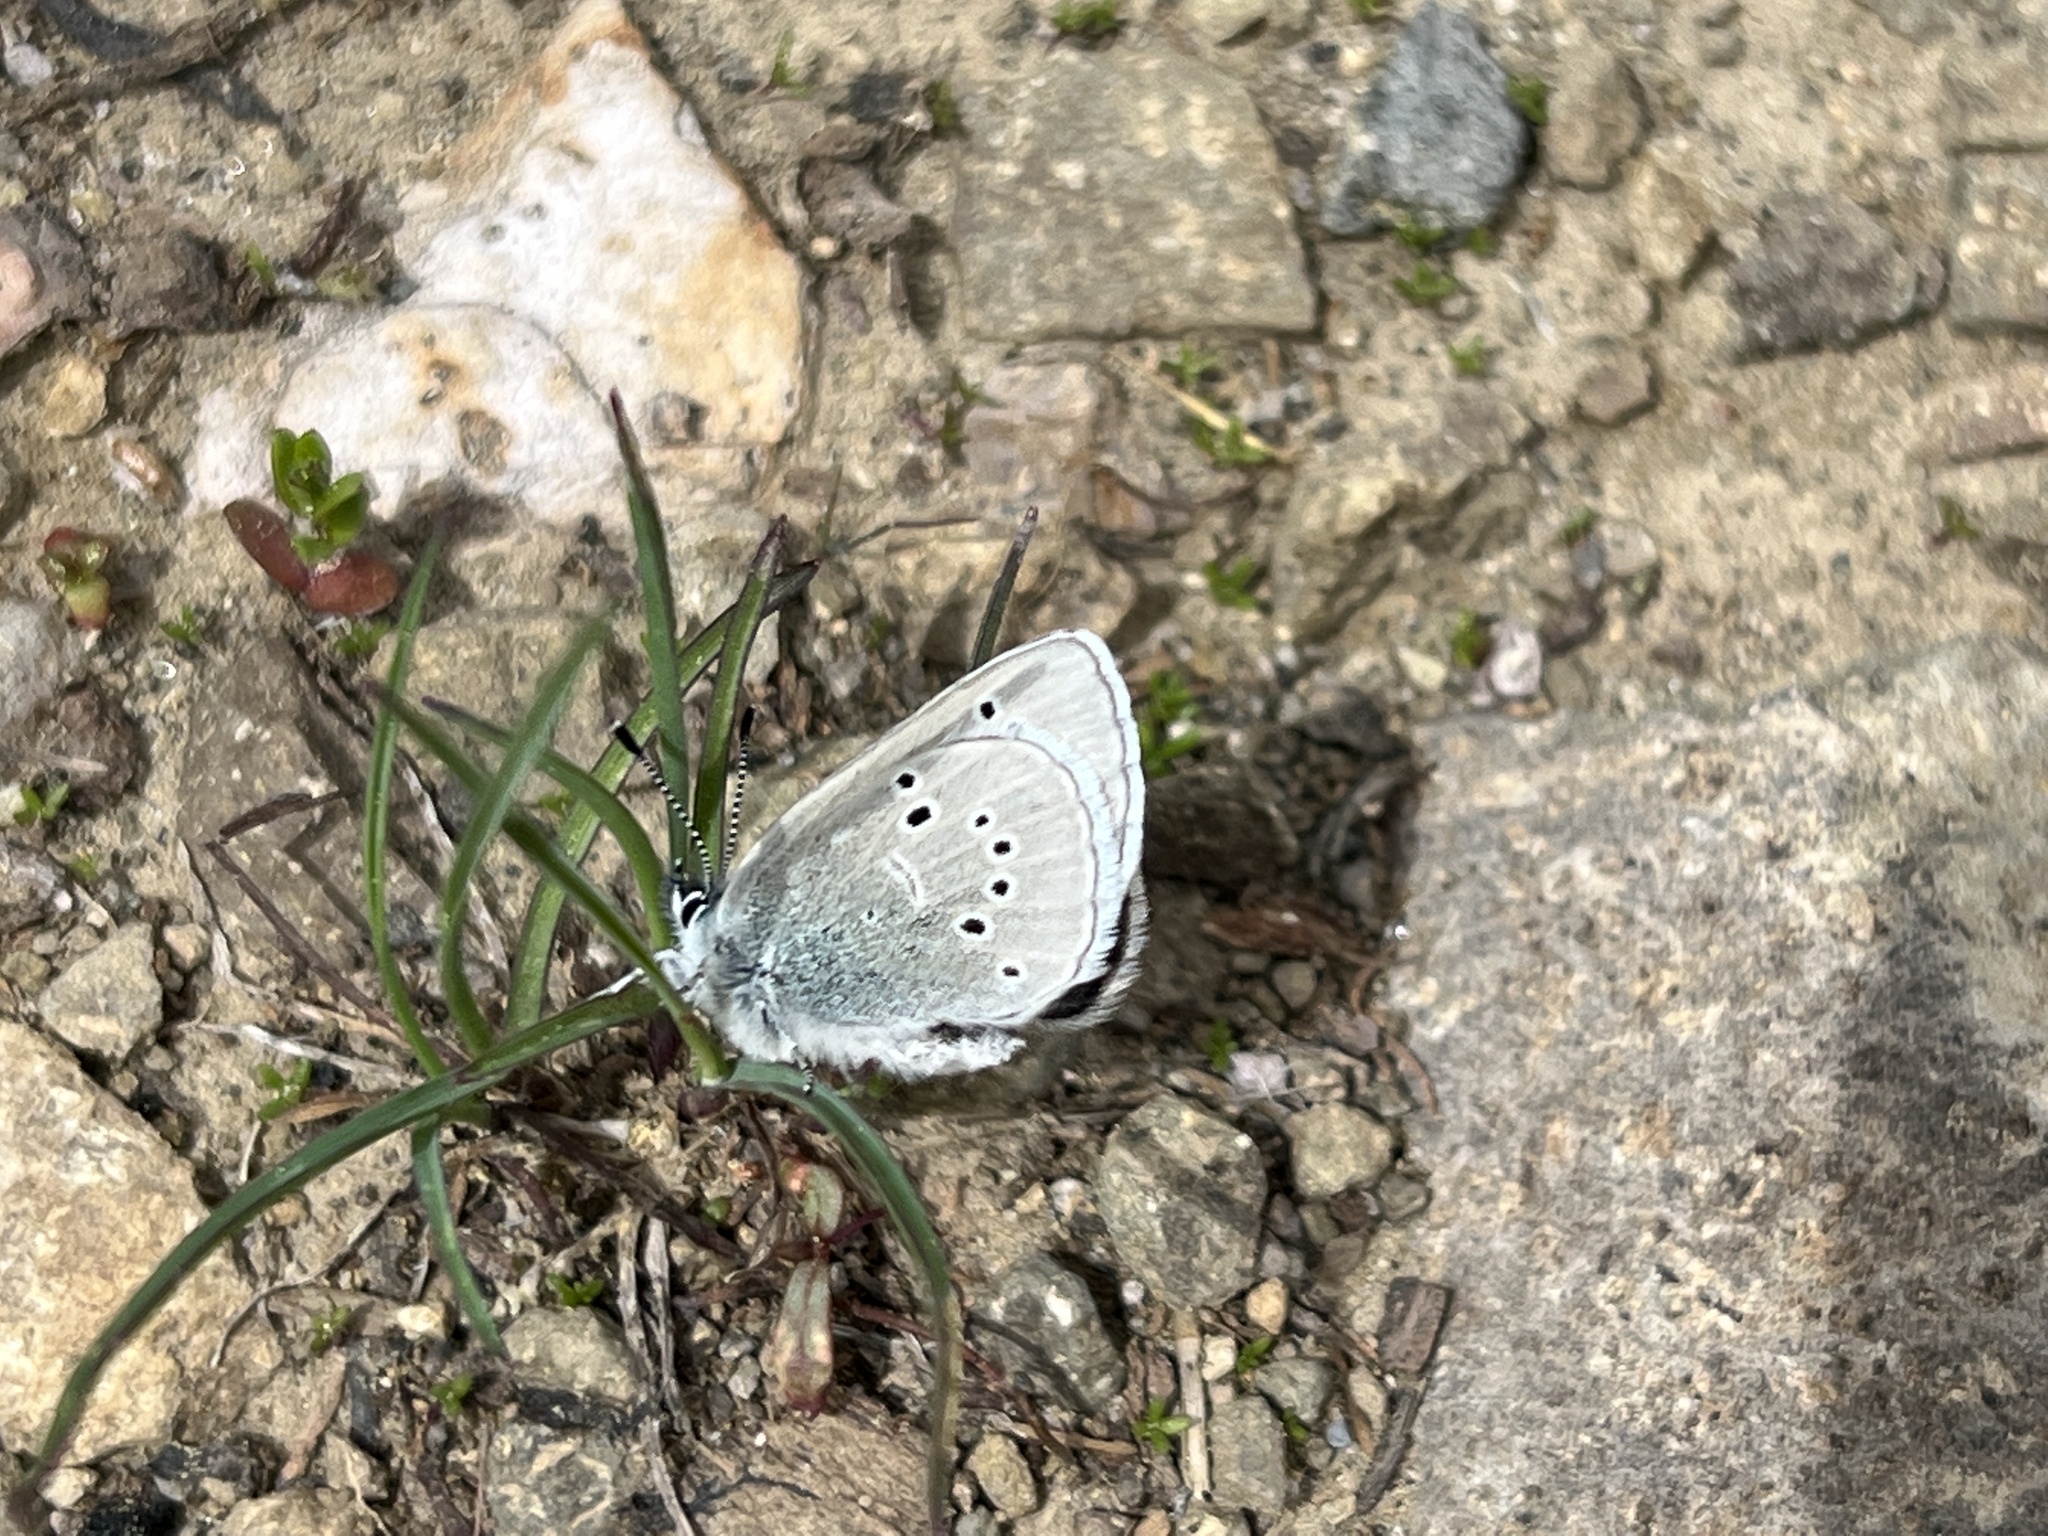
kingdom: Animalia
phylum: Arthropoda
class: Insecta
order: Lepidoptera
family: Lycaenidae
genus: Glaucopsyche
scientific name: Glaucopsyche lygdamus
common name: Silvery blue
